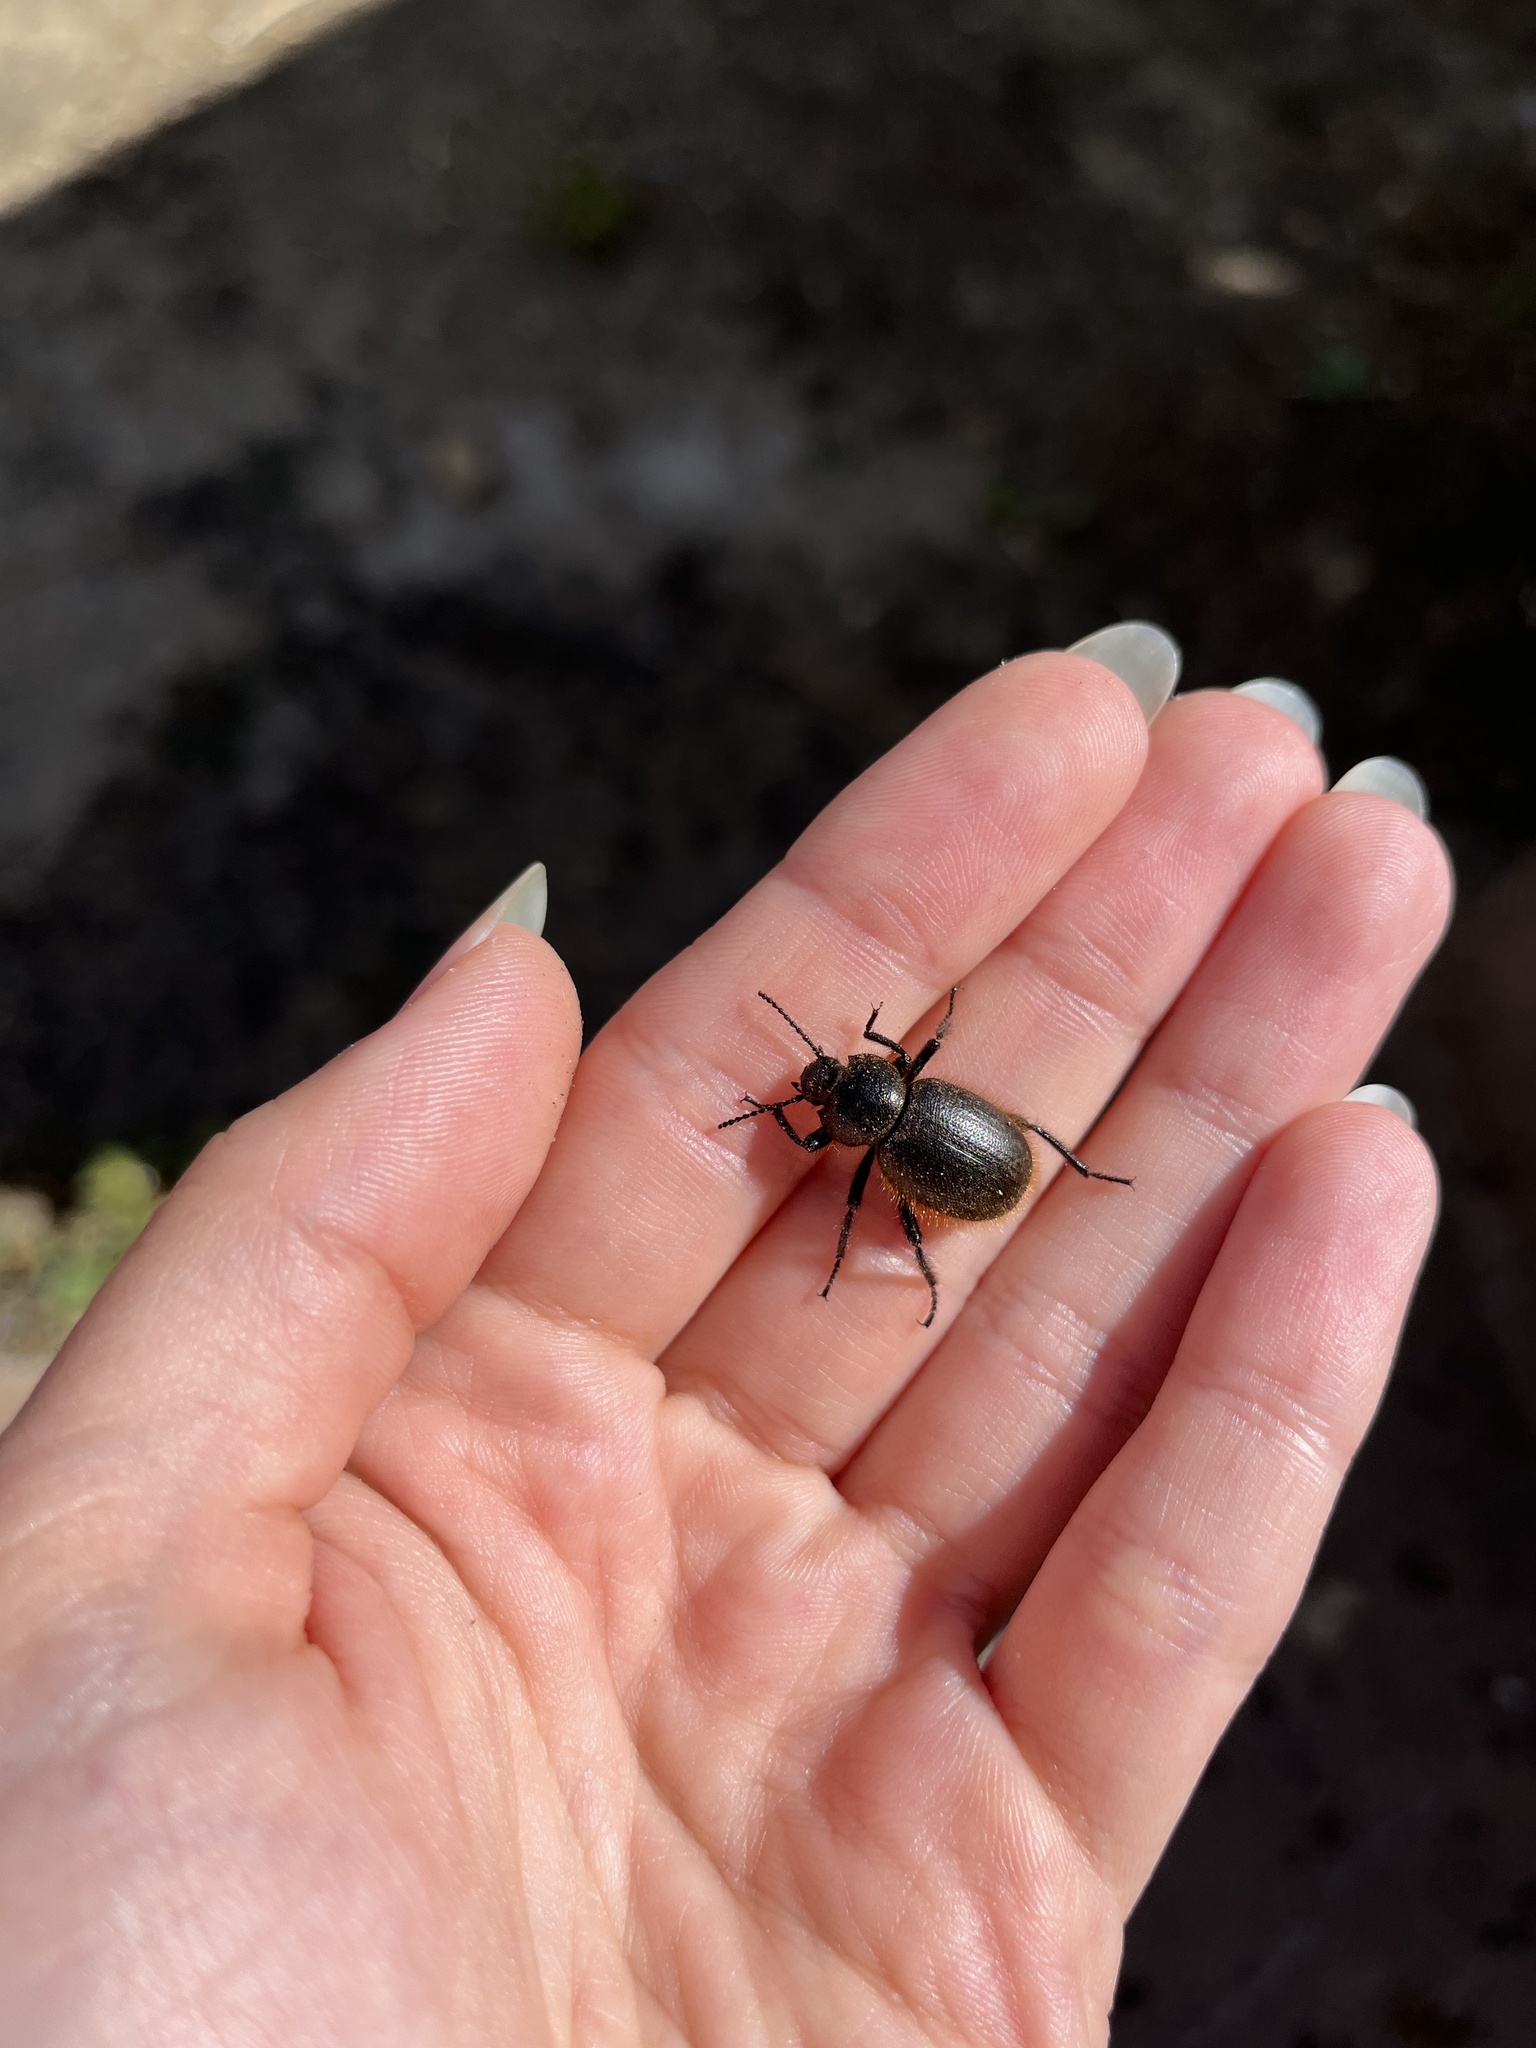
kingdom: Animalia
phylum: Arthropoda
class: Insecta
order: Coleoptera
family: Tenebrionidae
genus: Eleodes
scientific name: Eleodes osculans
